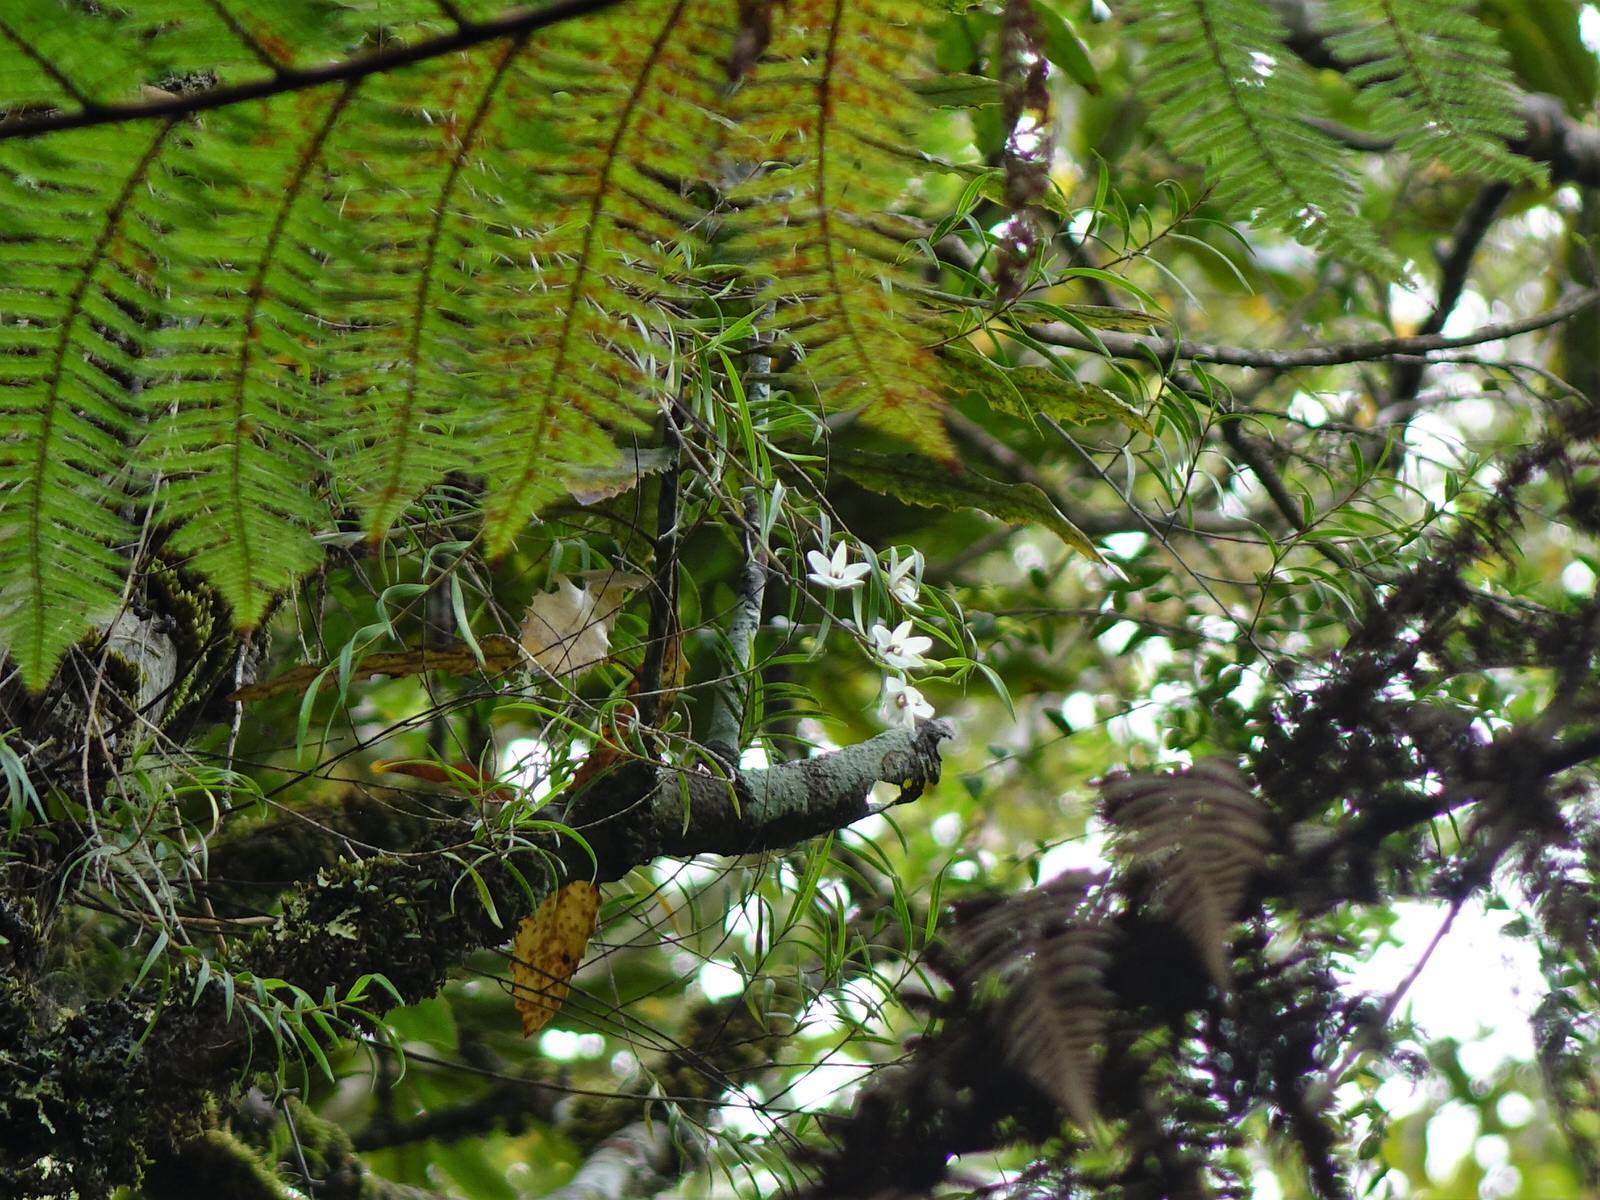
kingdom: Plantae
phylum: Tracheophyta
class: Liliopsida
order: Asparagales
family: Orchidaceae
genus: Dendrobium
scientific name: Dendrobium cunninghamii
